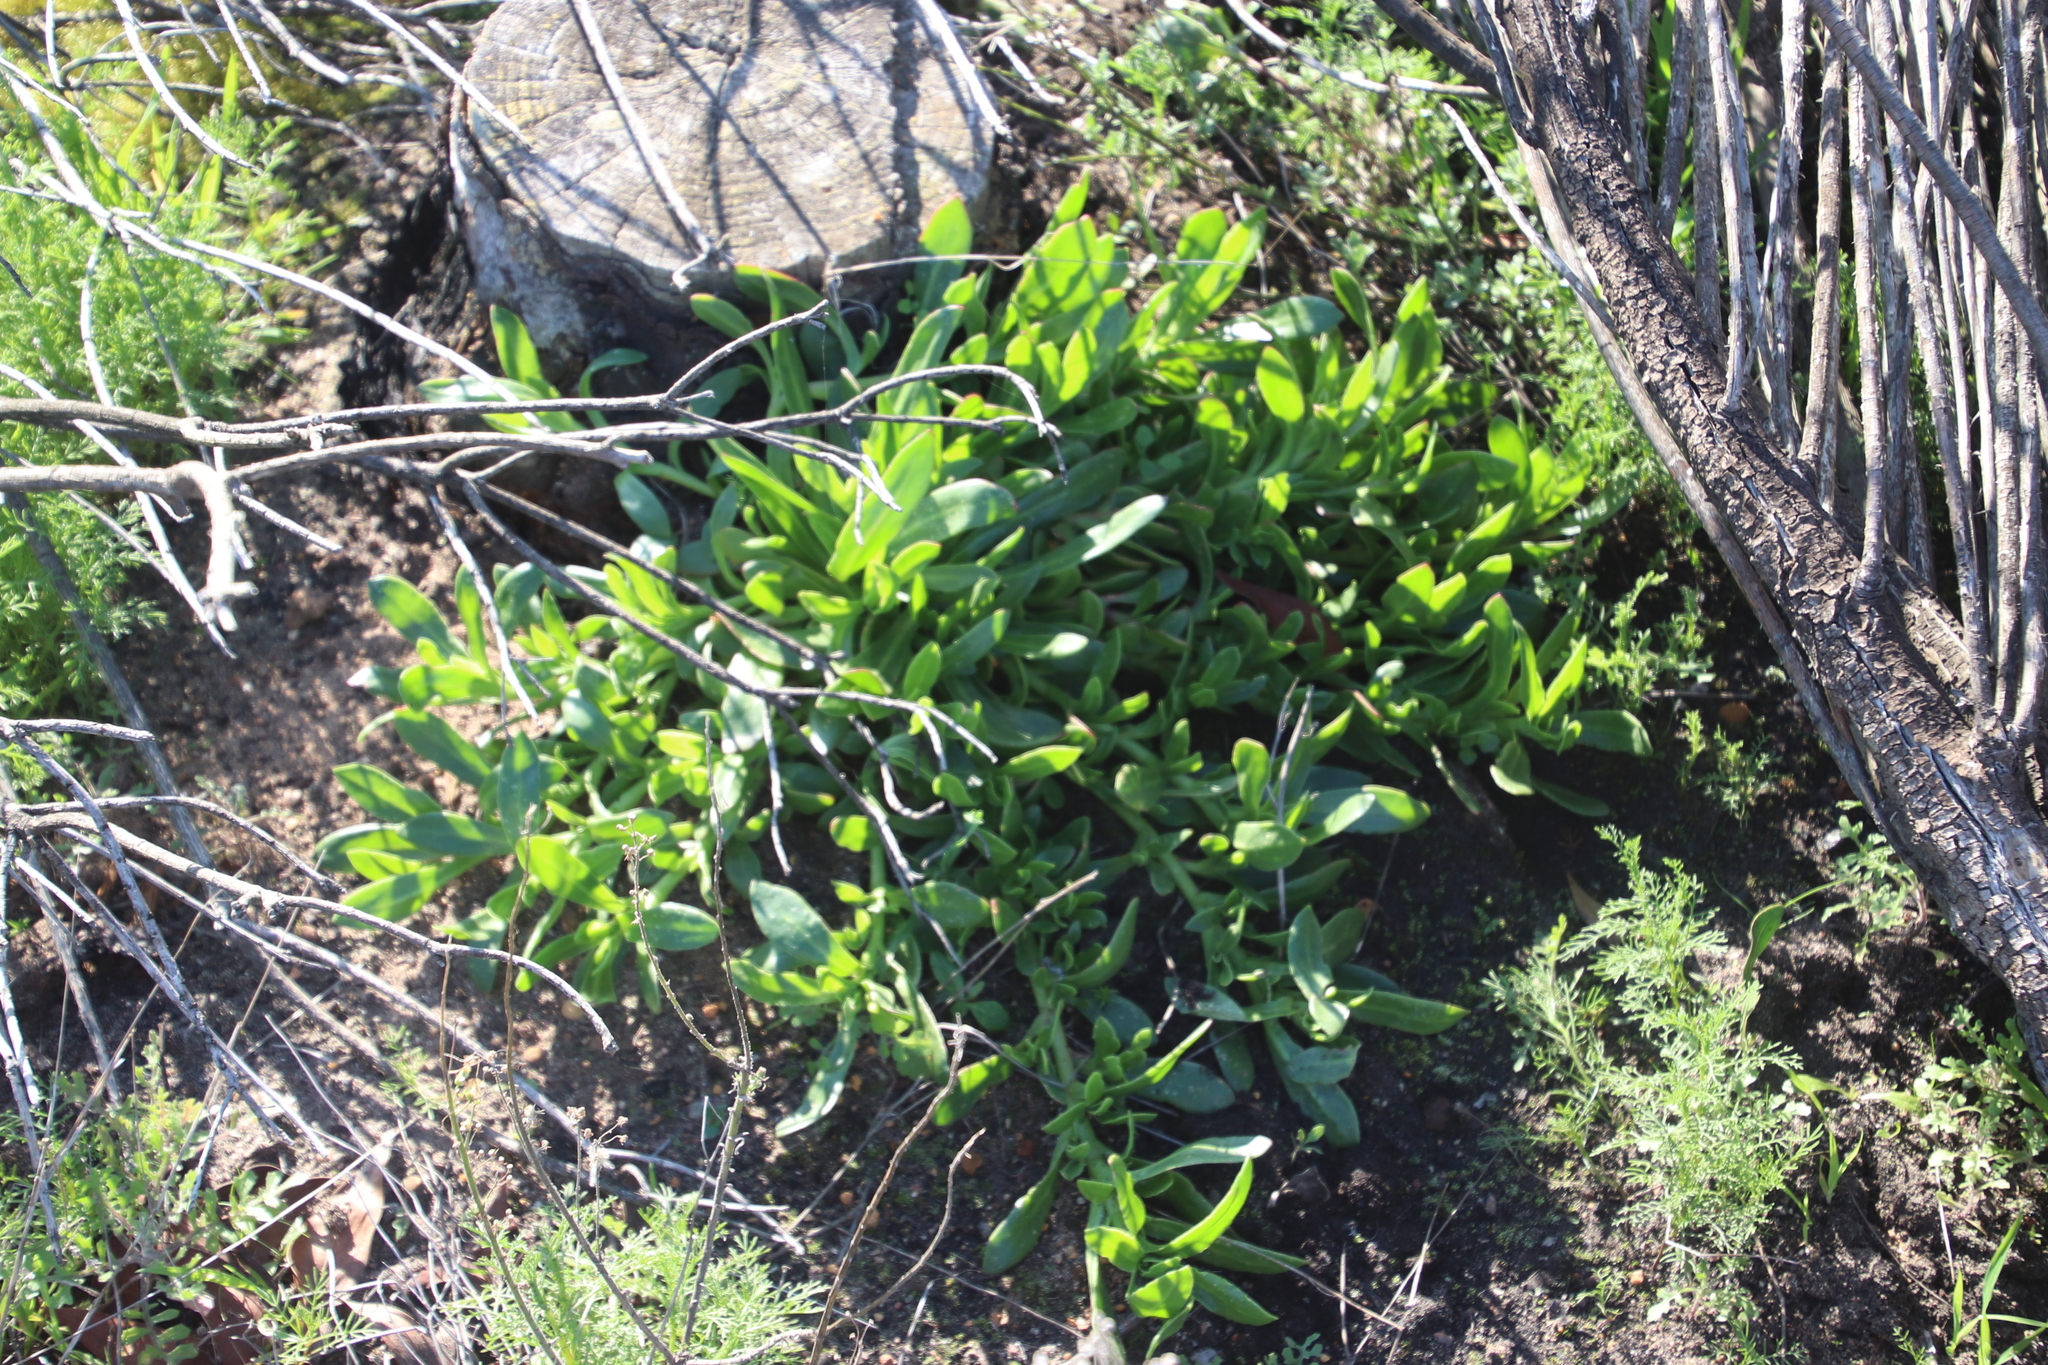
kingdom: Plantae
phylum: Tracheophyta
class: Magnoliopsida
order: Caryophyllales
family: Aizoaceae
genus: Skiatophytum
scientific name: Skiatophytum tripolium
